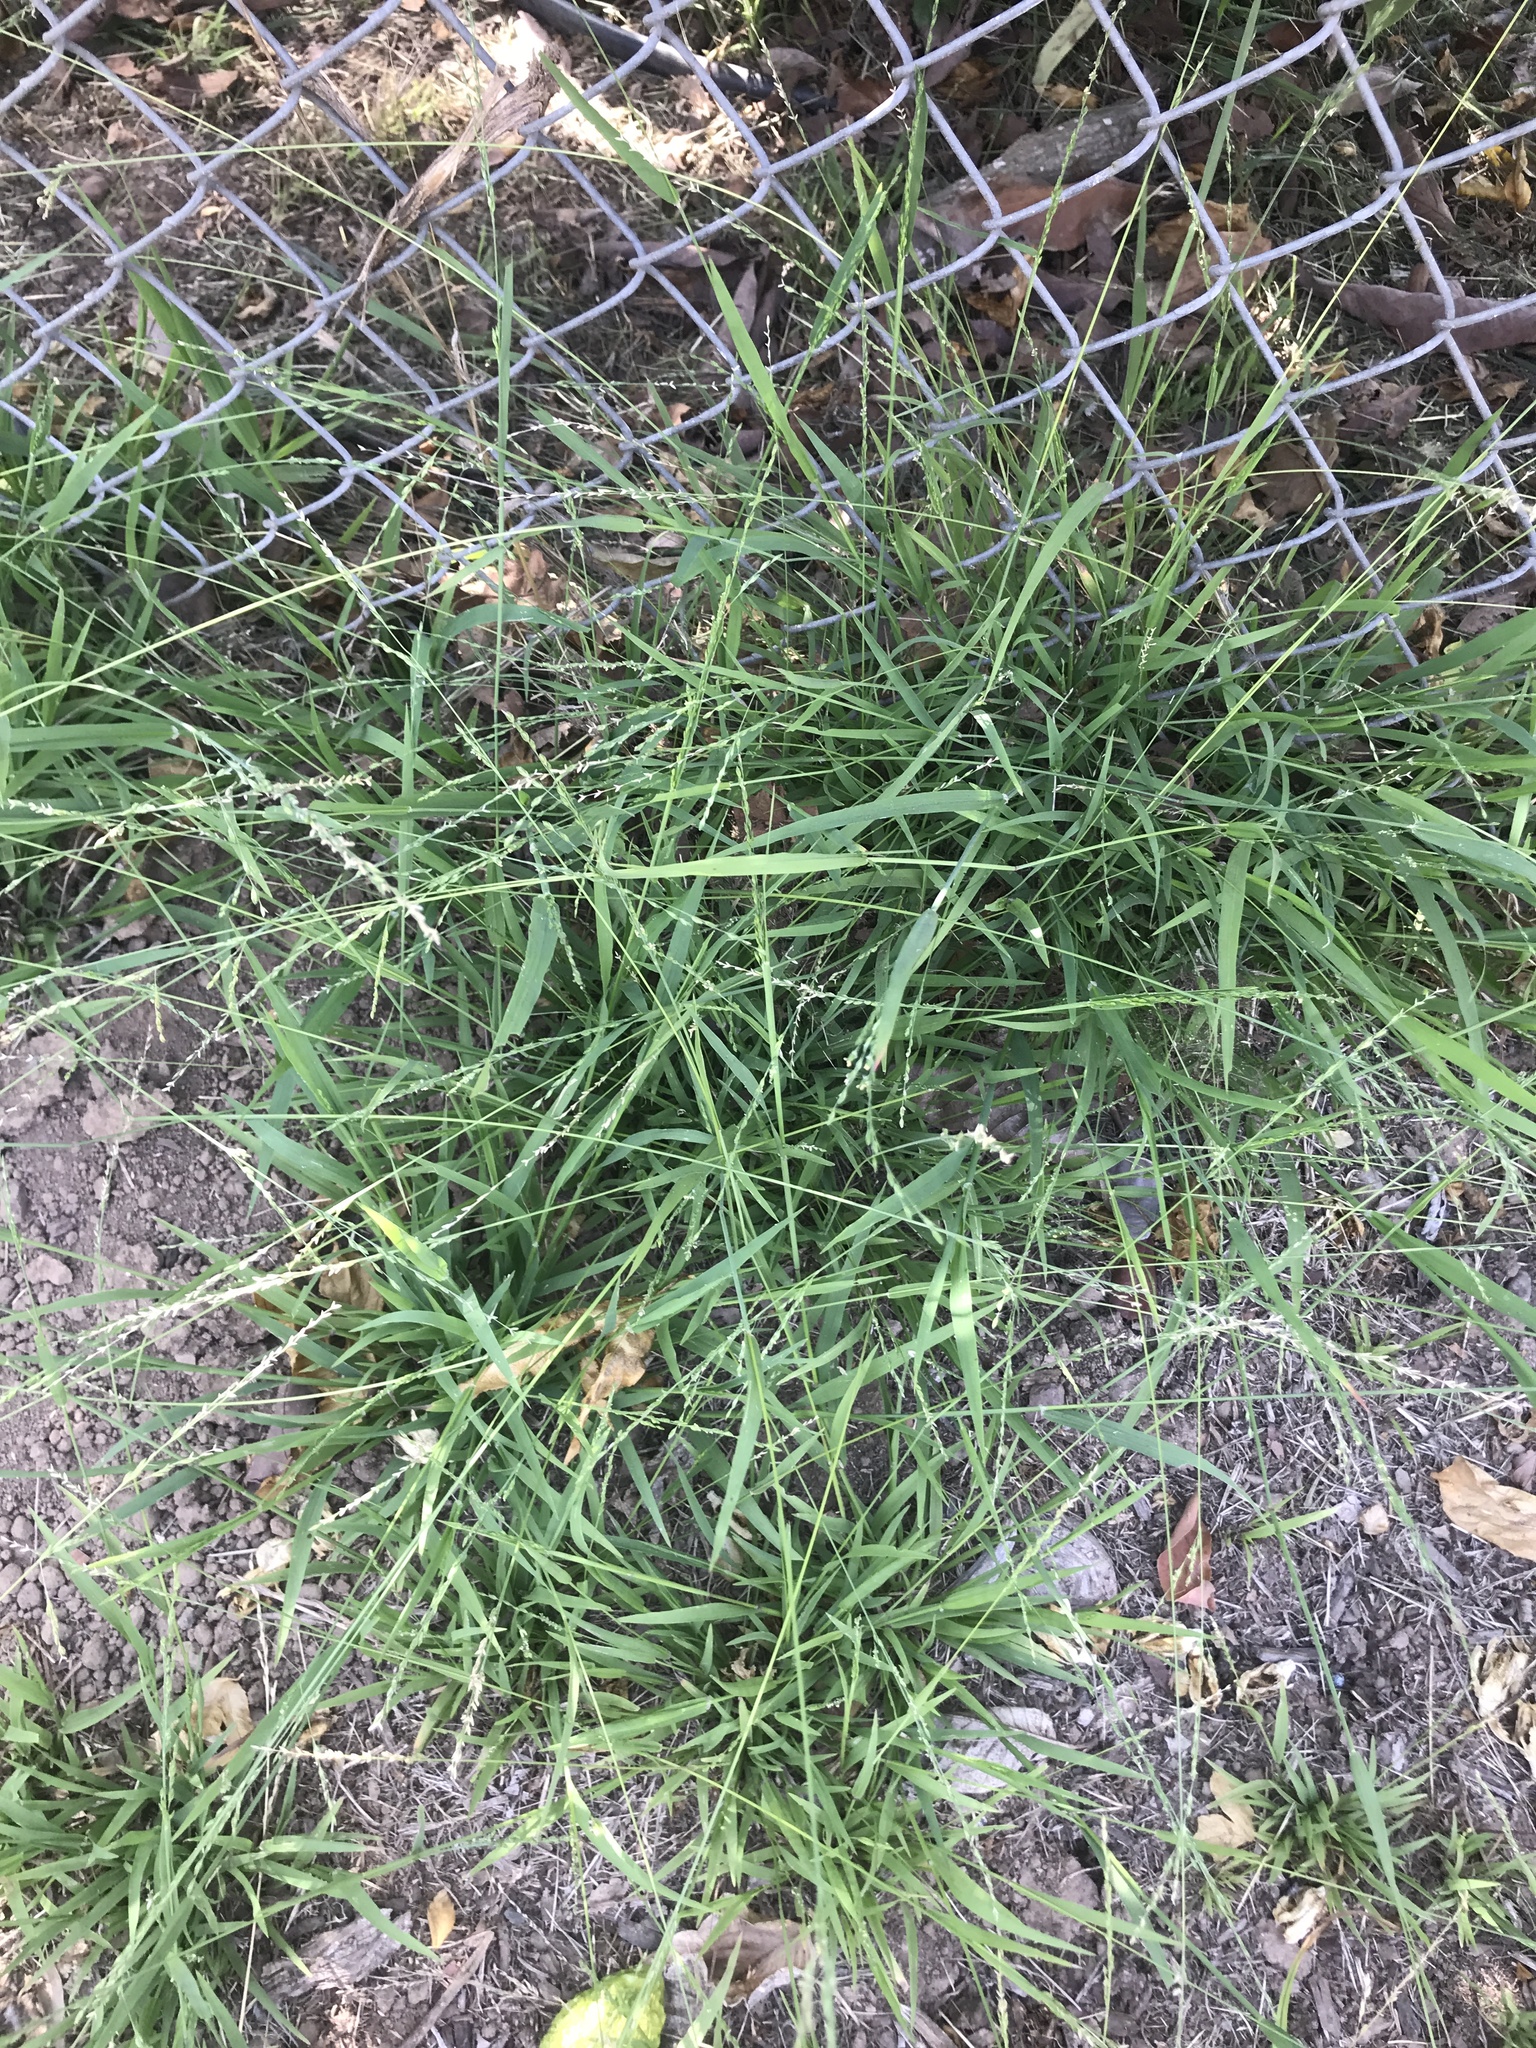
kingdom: Plantae
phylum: Tracheophyta
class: Liliopsida
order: Poales
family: Poaceae
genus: Ehrharta
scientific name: Ehrharta erecta
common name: Panic veldtgrass
